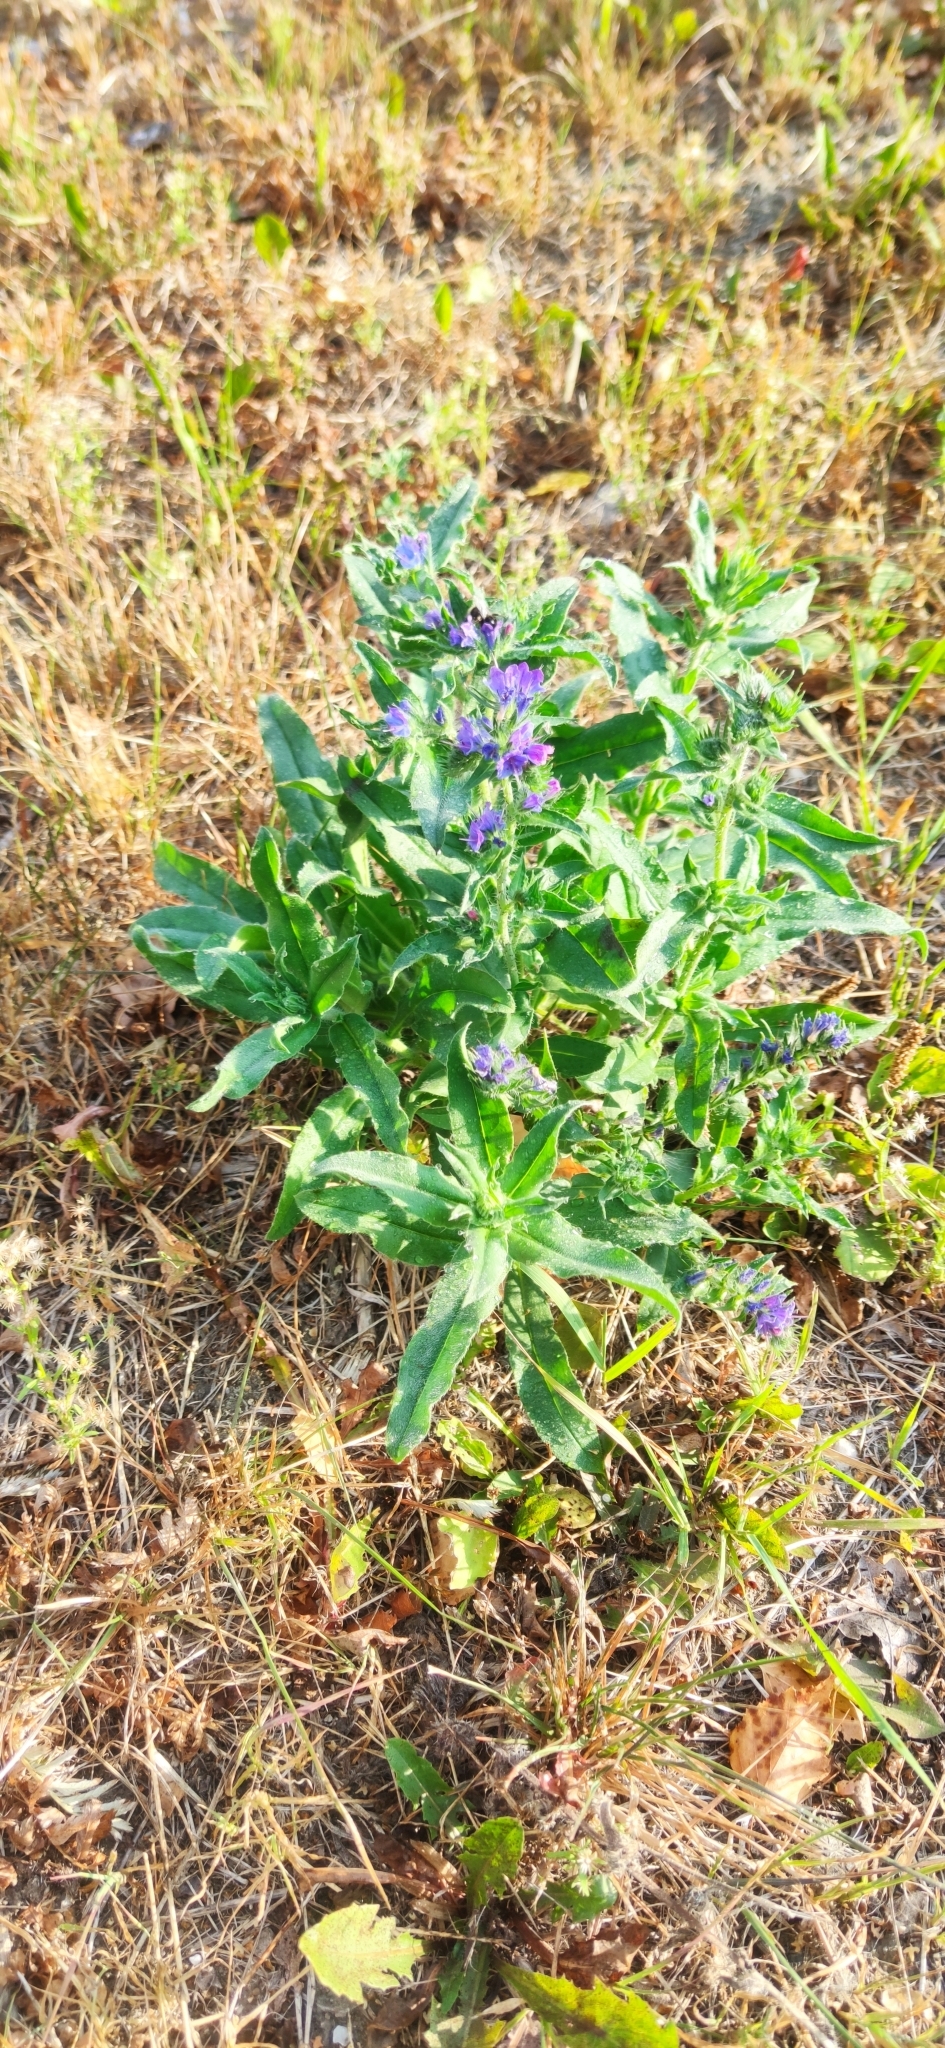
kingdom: Plantae
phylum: Tracheophyta
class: Magnoliopsida
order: Boraginales
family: Boraginaceae
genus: Echium
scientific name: Echium vulgare
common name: Common viper's bugloss
